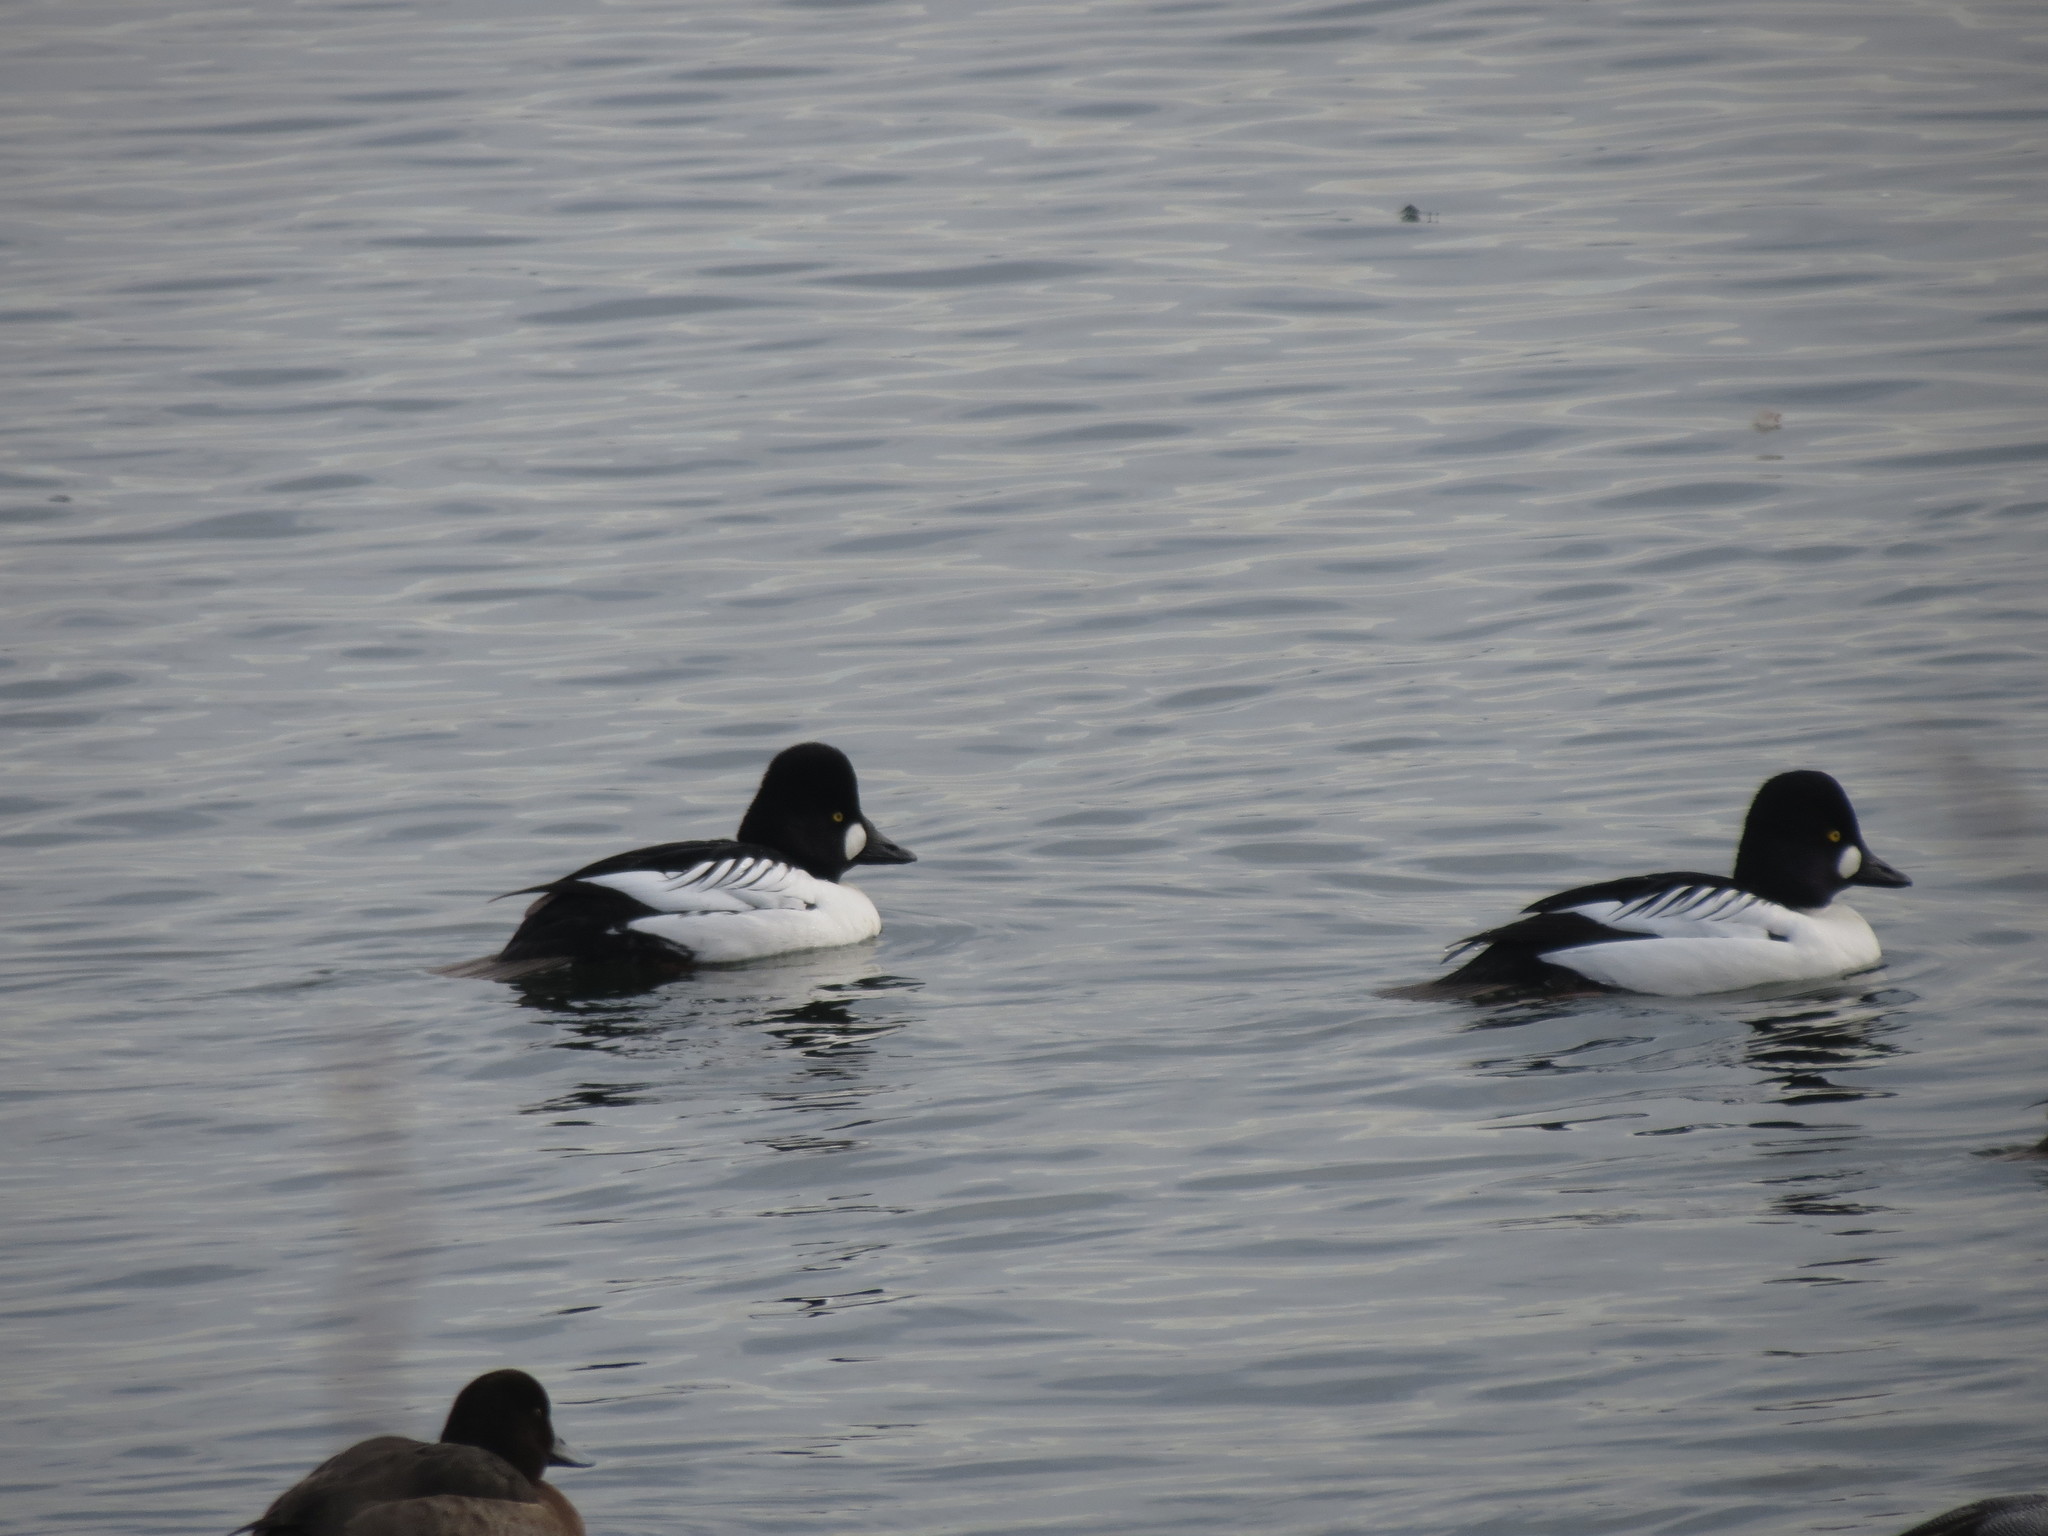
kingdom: Animalia
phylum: Chordata
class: Aves
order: Anseriformes
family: Anatidae
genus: Bucephala
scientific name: Bucephala clangula
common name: Common goldeneye
